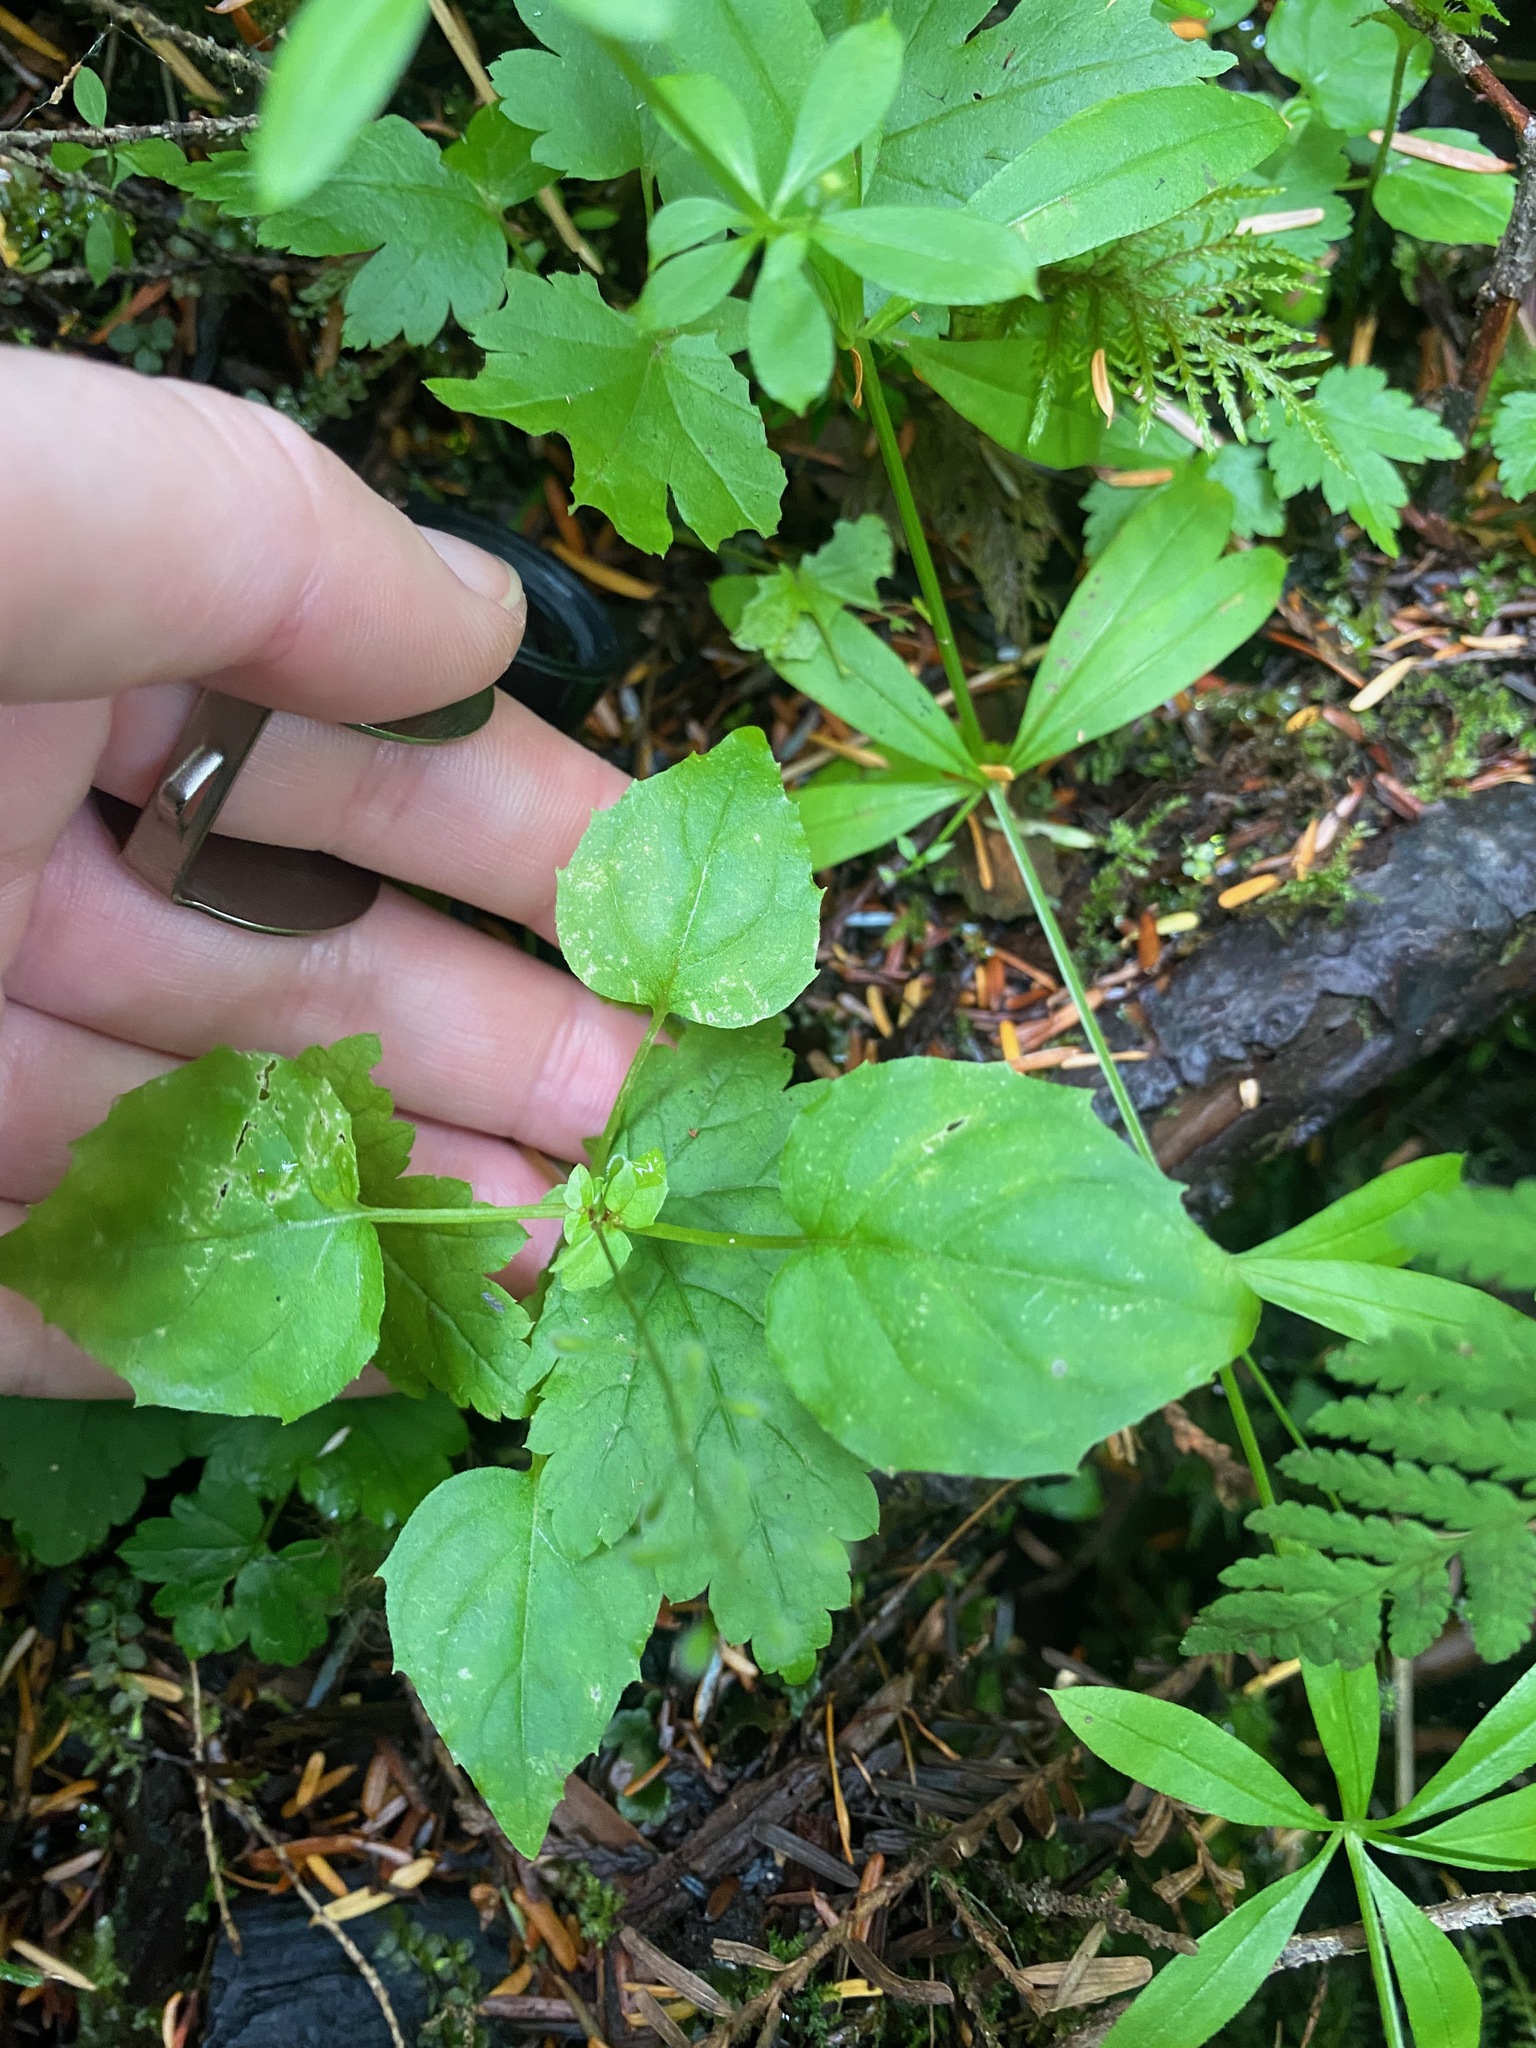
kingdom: Plantae
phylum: Tracheophyta
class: Magnoliopsida
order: Myrtales
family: Onagraceae
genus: Circaea
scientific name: Circaea alpina
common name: Alpine enchanter's-nightshade
